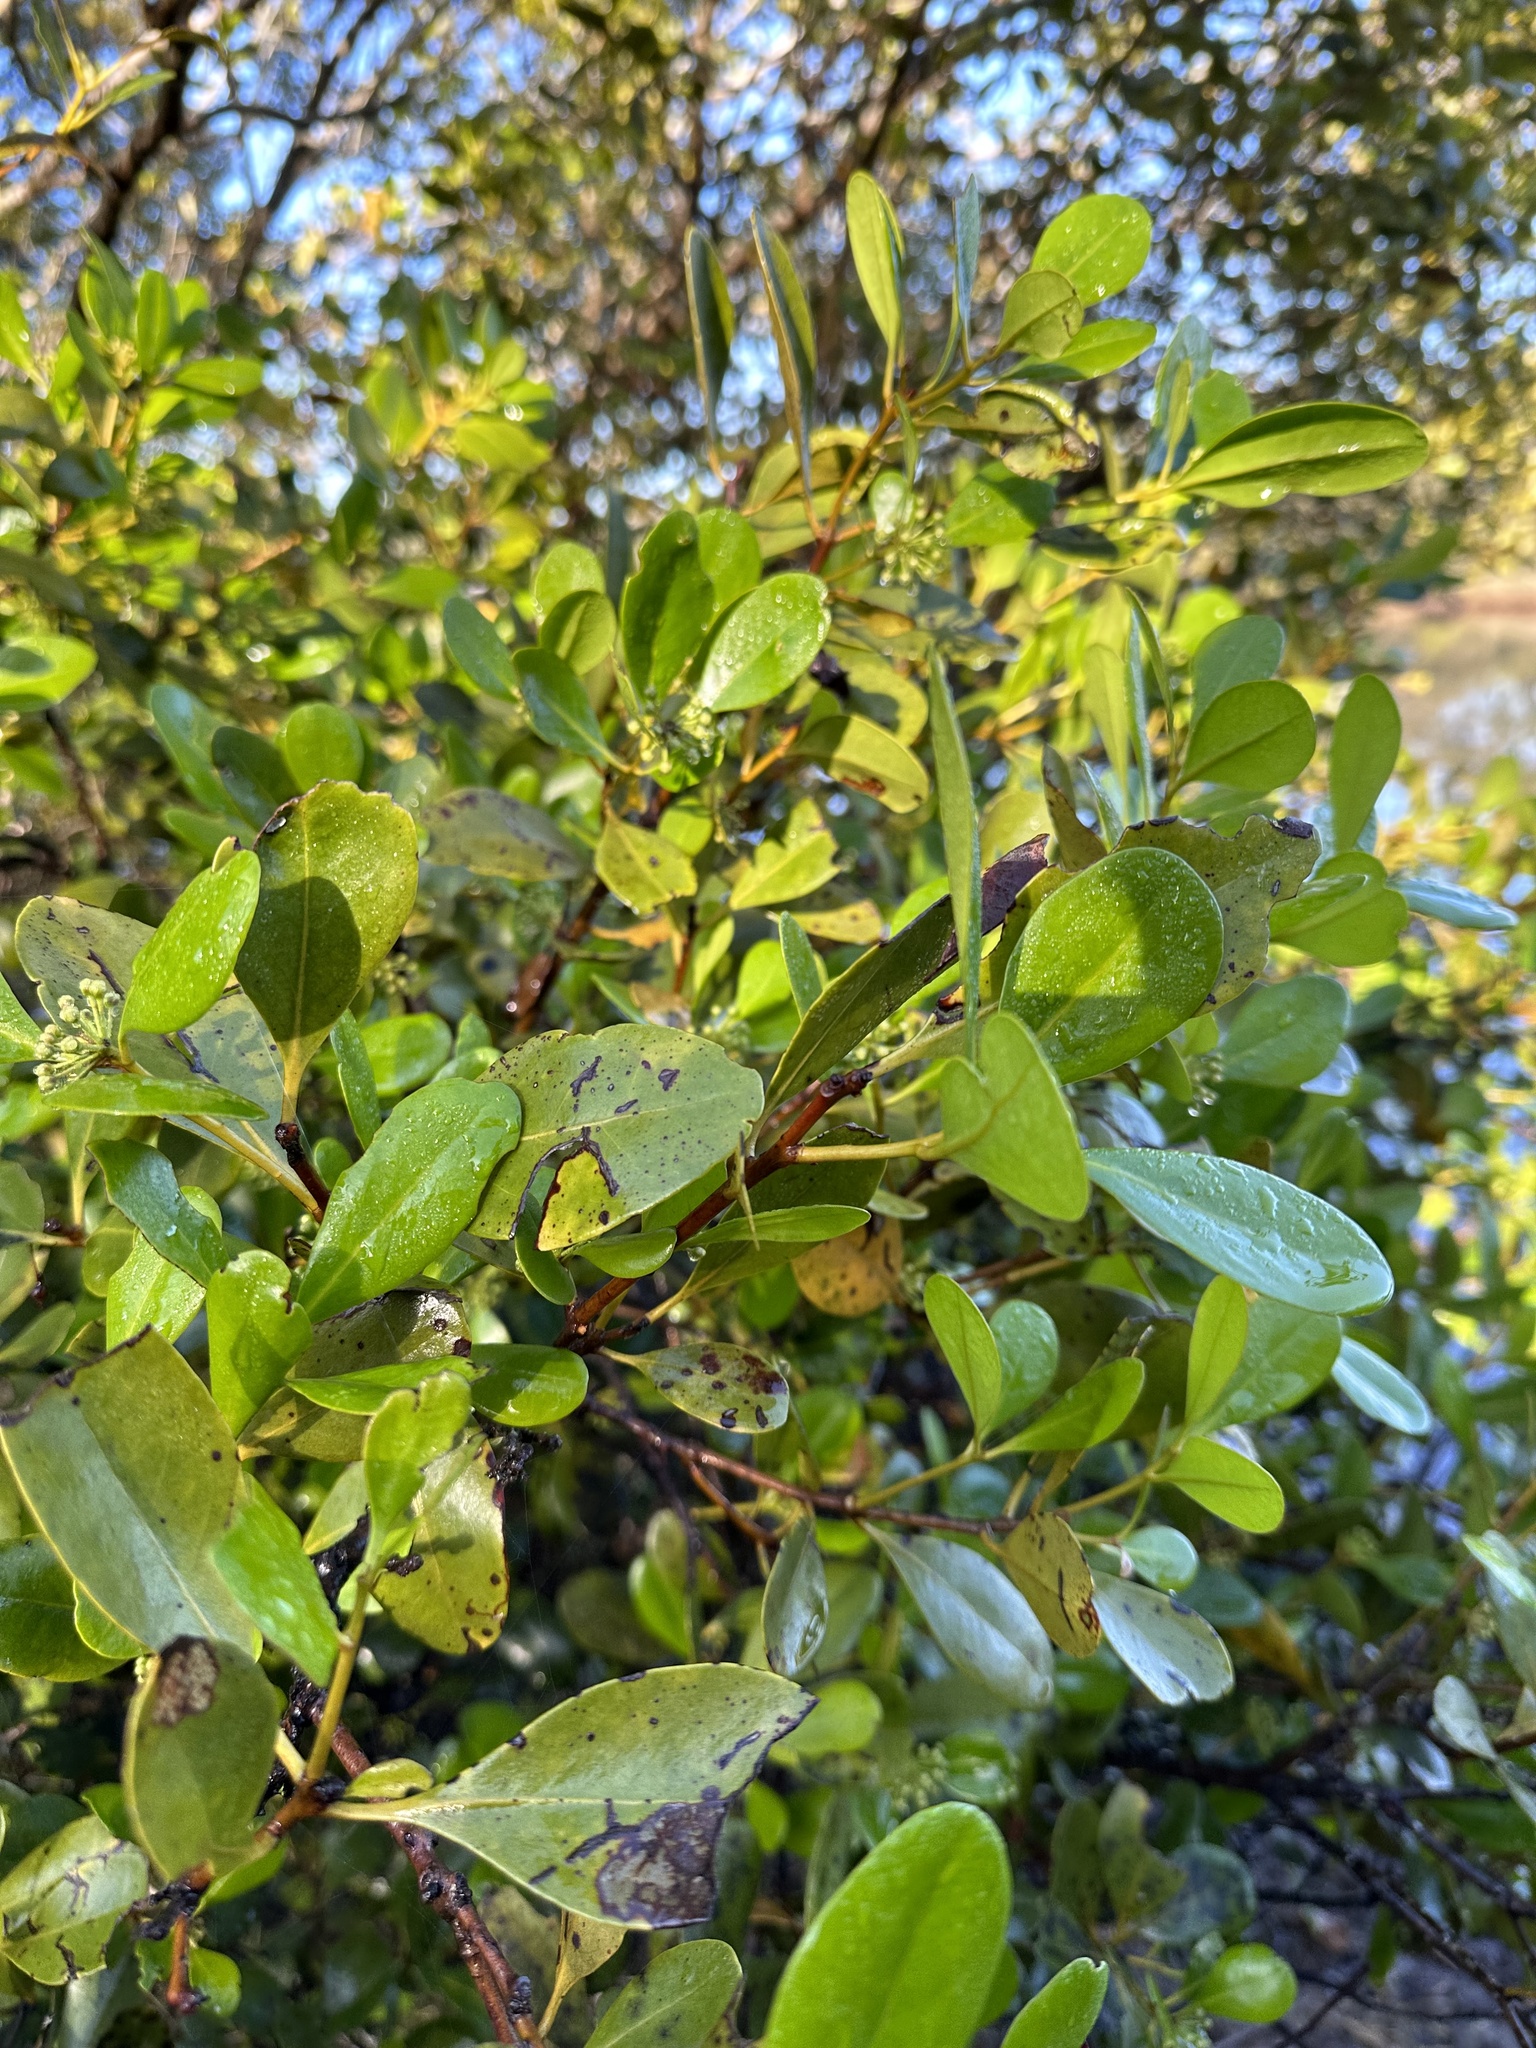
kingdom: Plantae
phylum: Tracheophyta
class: Magnoliopsida
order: Ericales
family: Primulaceae
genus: Aegiceras
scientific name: Aegiceras corniculatum
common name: River mangrove
